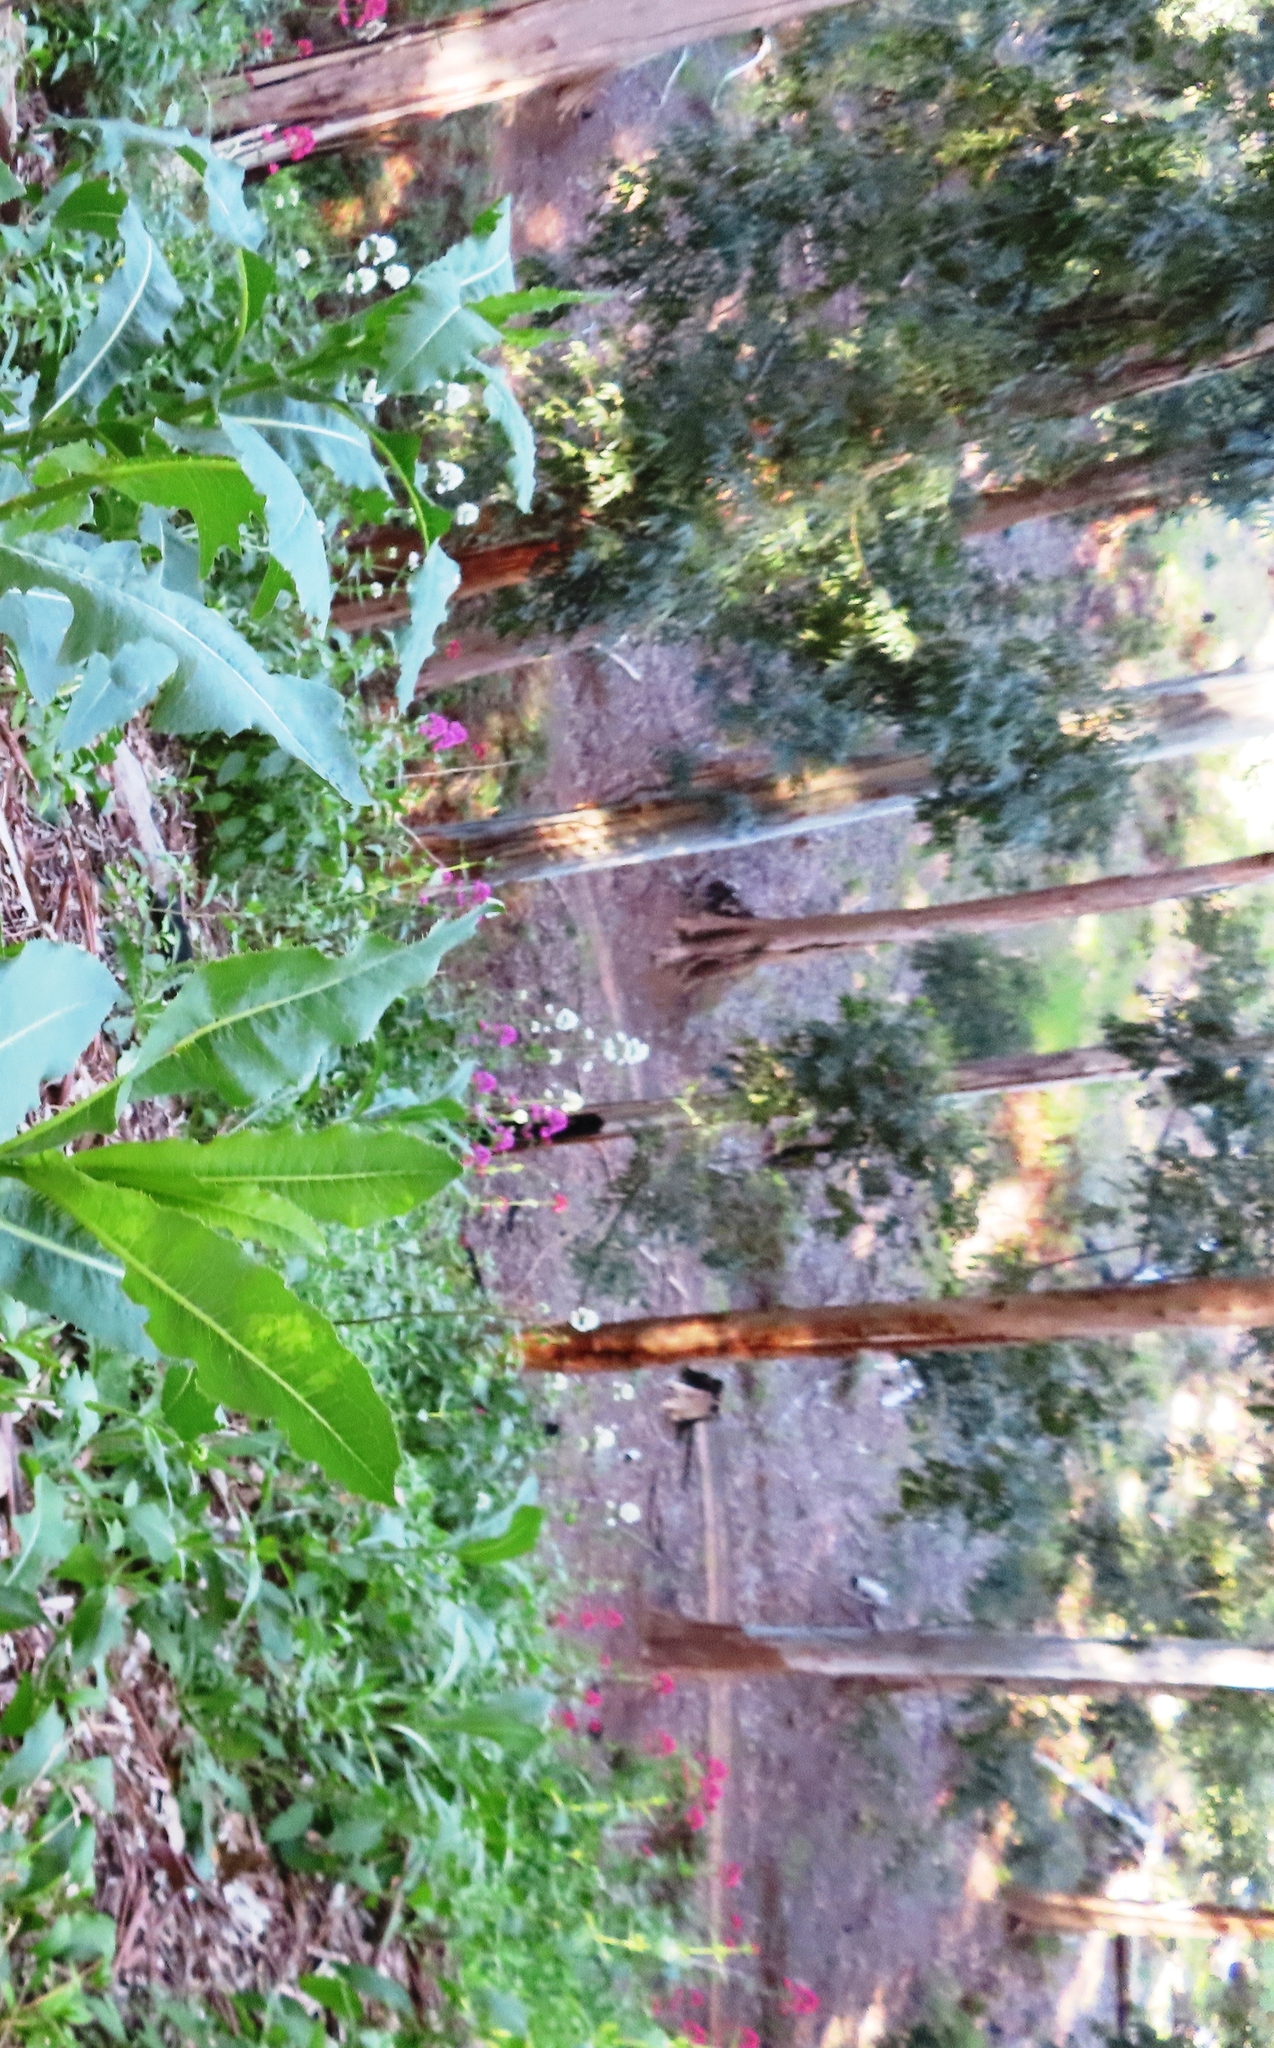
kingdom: Plantae
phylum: Tracheophyta
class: Magnoliopsida
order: Dipsacales
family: Caprifoliaceae
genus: Centranthus
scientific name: Centranthus ruber
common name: Red valerian
